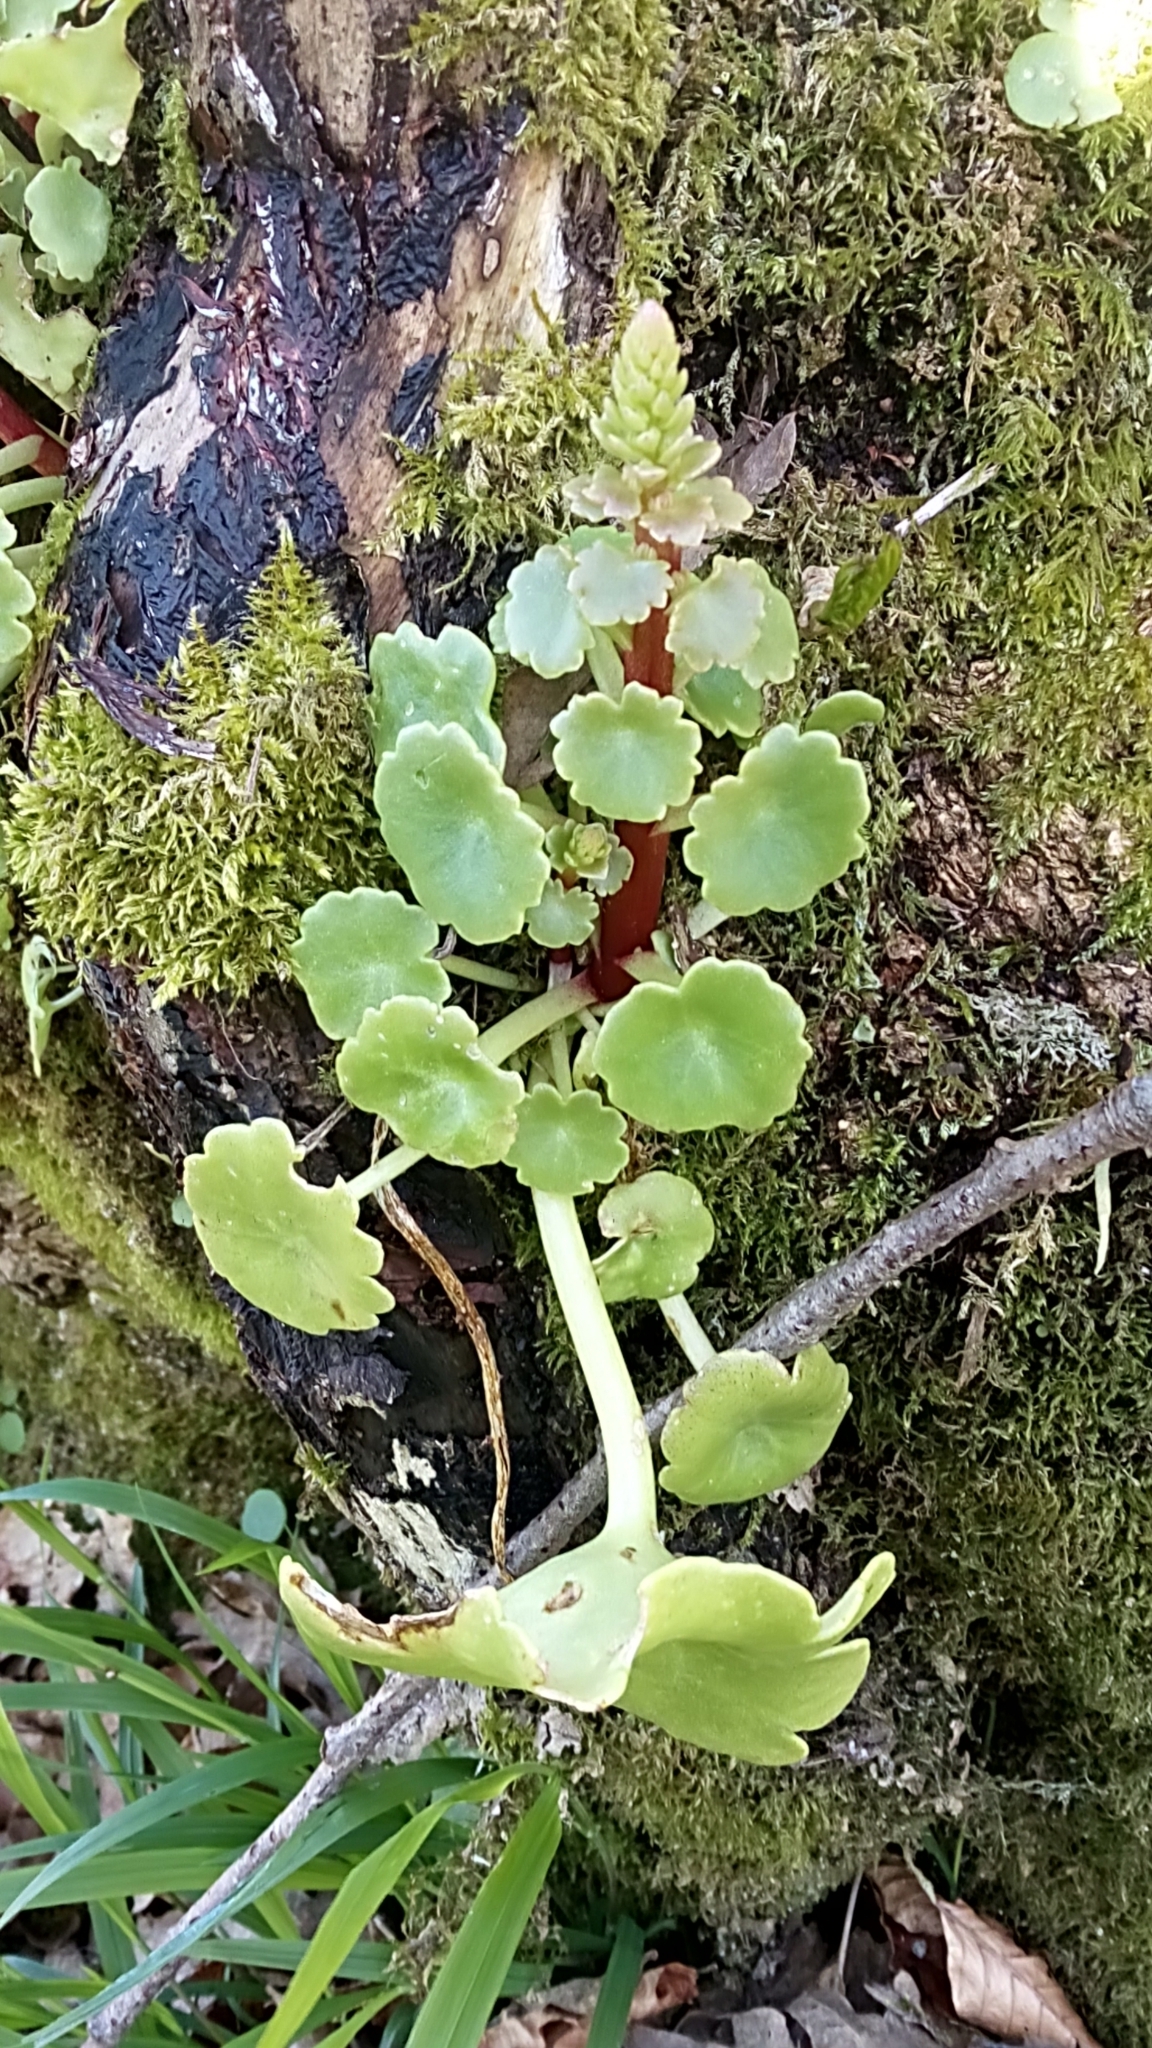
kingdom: Plantae
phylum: Tracheophyta
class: Magnoliopsida
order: Saxifragales
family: Crassulaceae
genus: Umbilicus
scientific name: Umbilicus rupestris
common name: Navelwort
